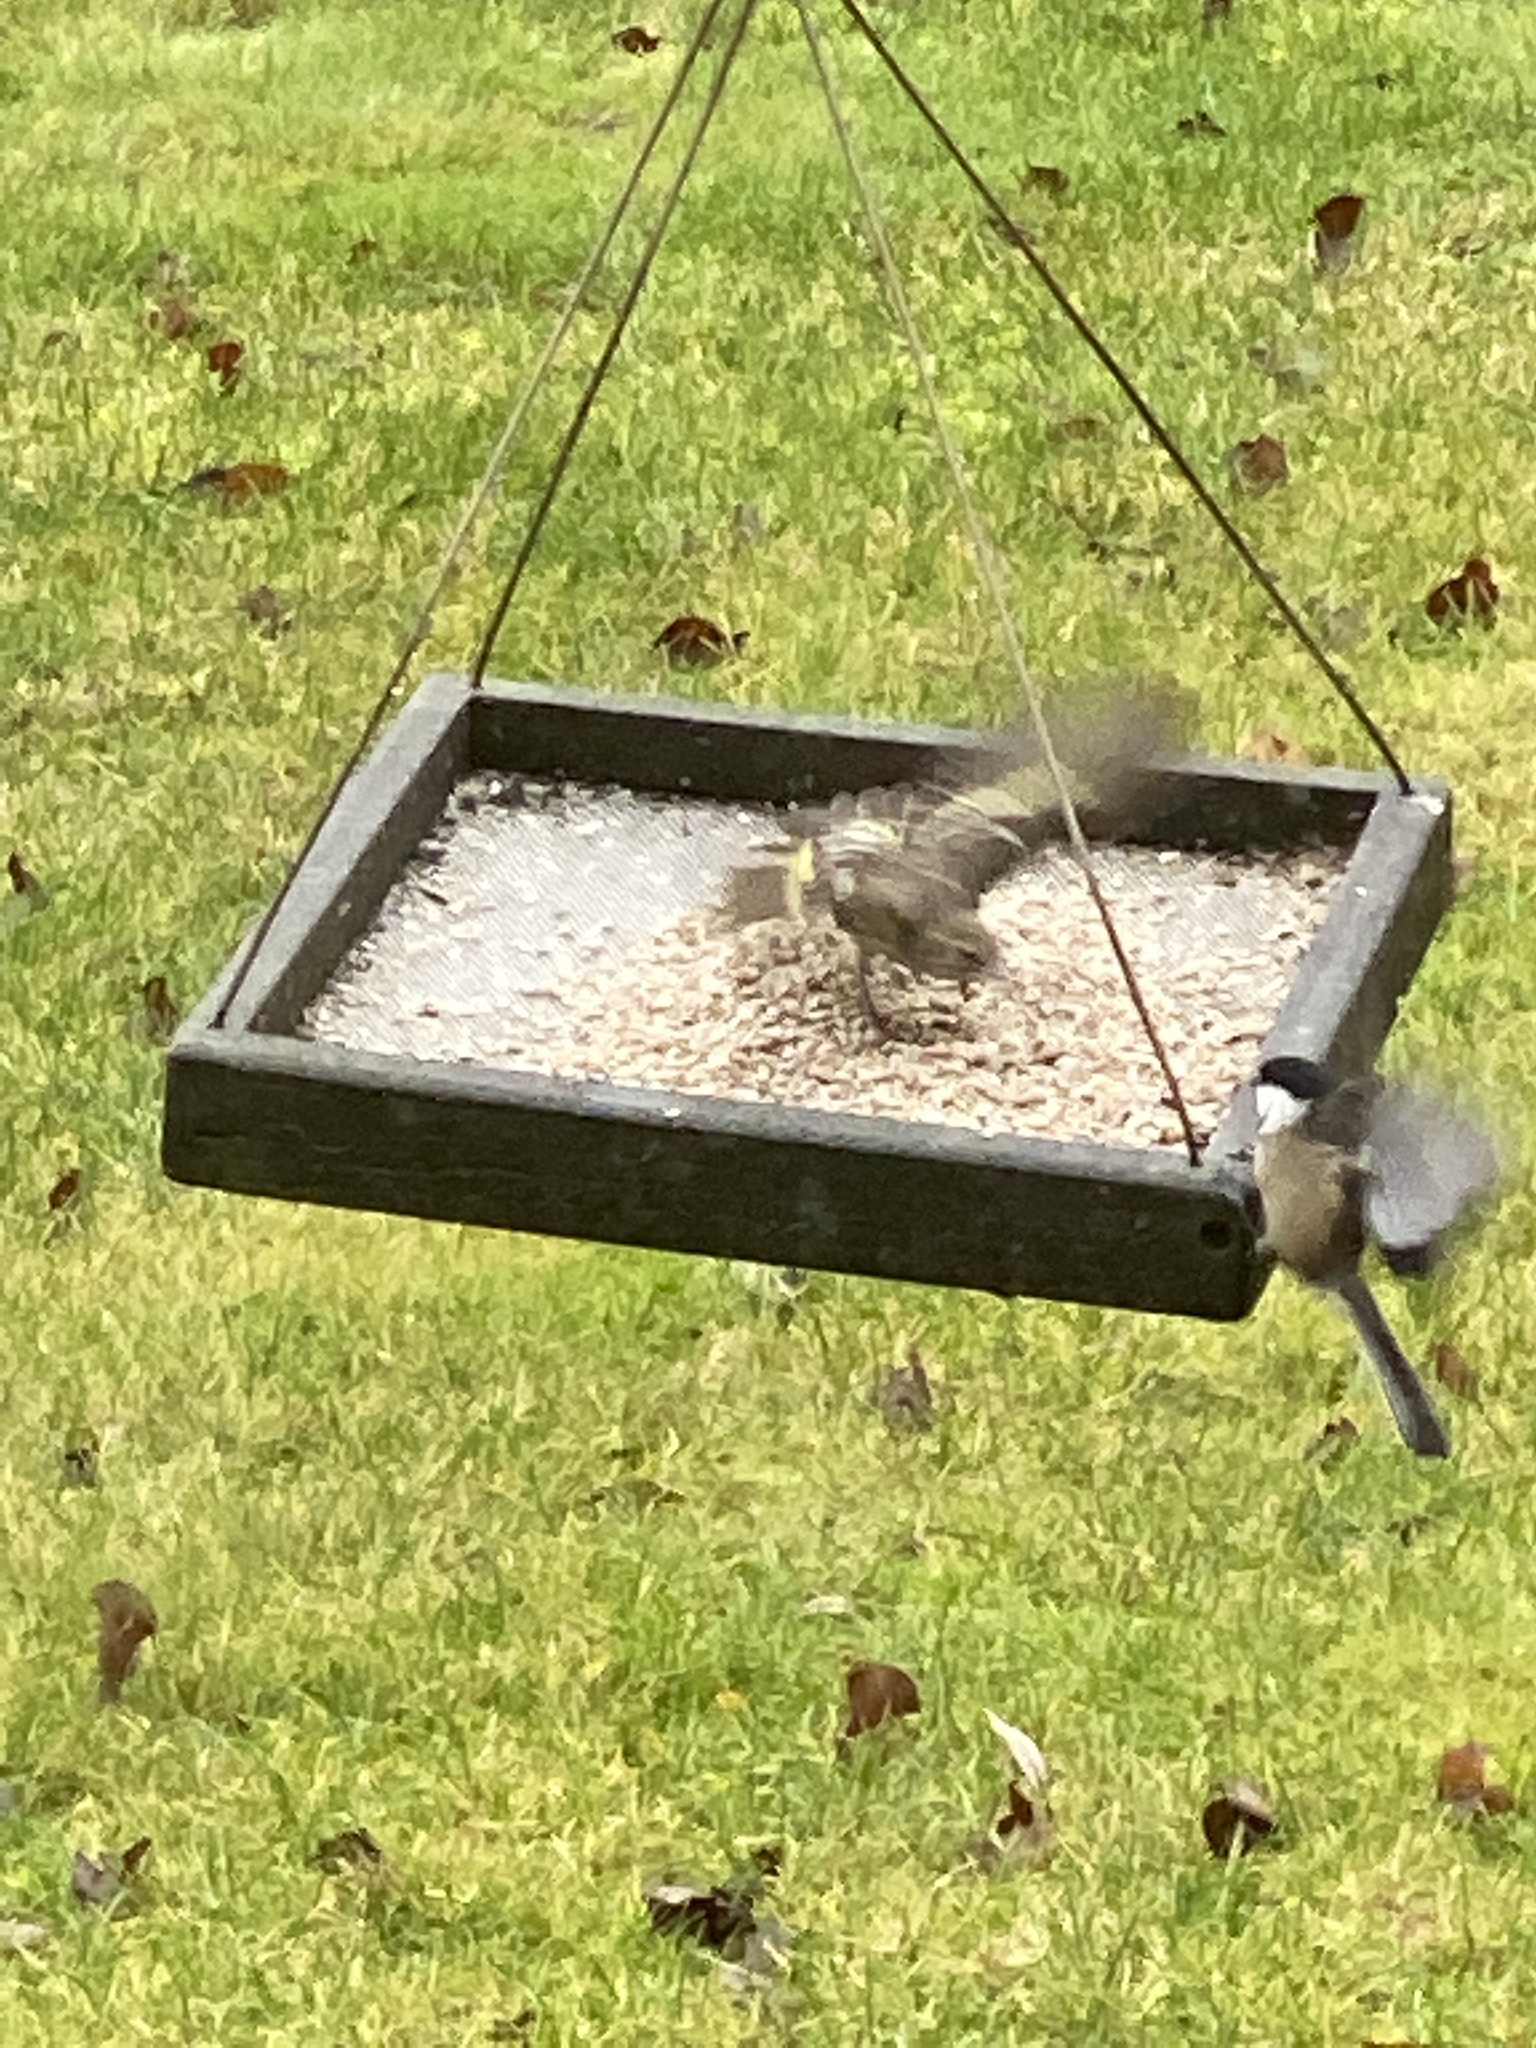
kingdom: Animalia
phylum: Chordata
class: Aves
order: Passeriformes
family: Fringillidae
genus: Spinus
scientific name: Spinus pinus
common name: Pine siskin
